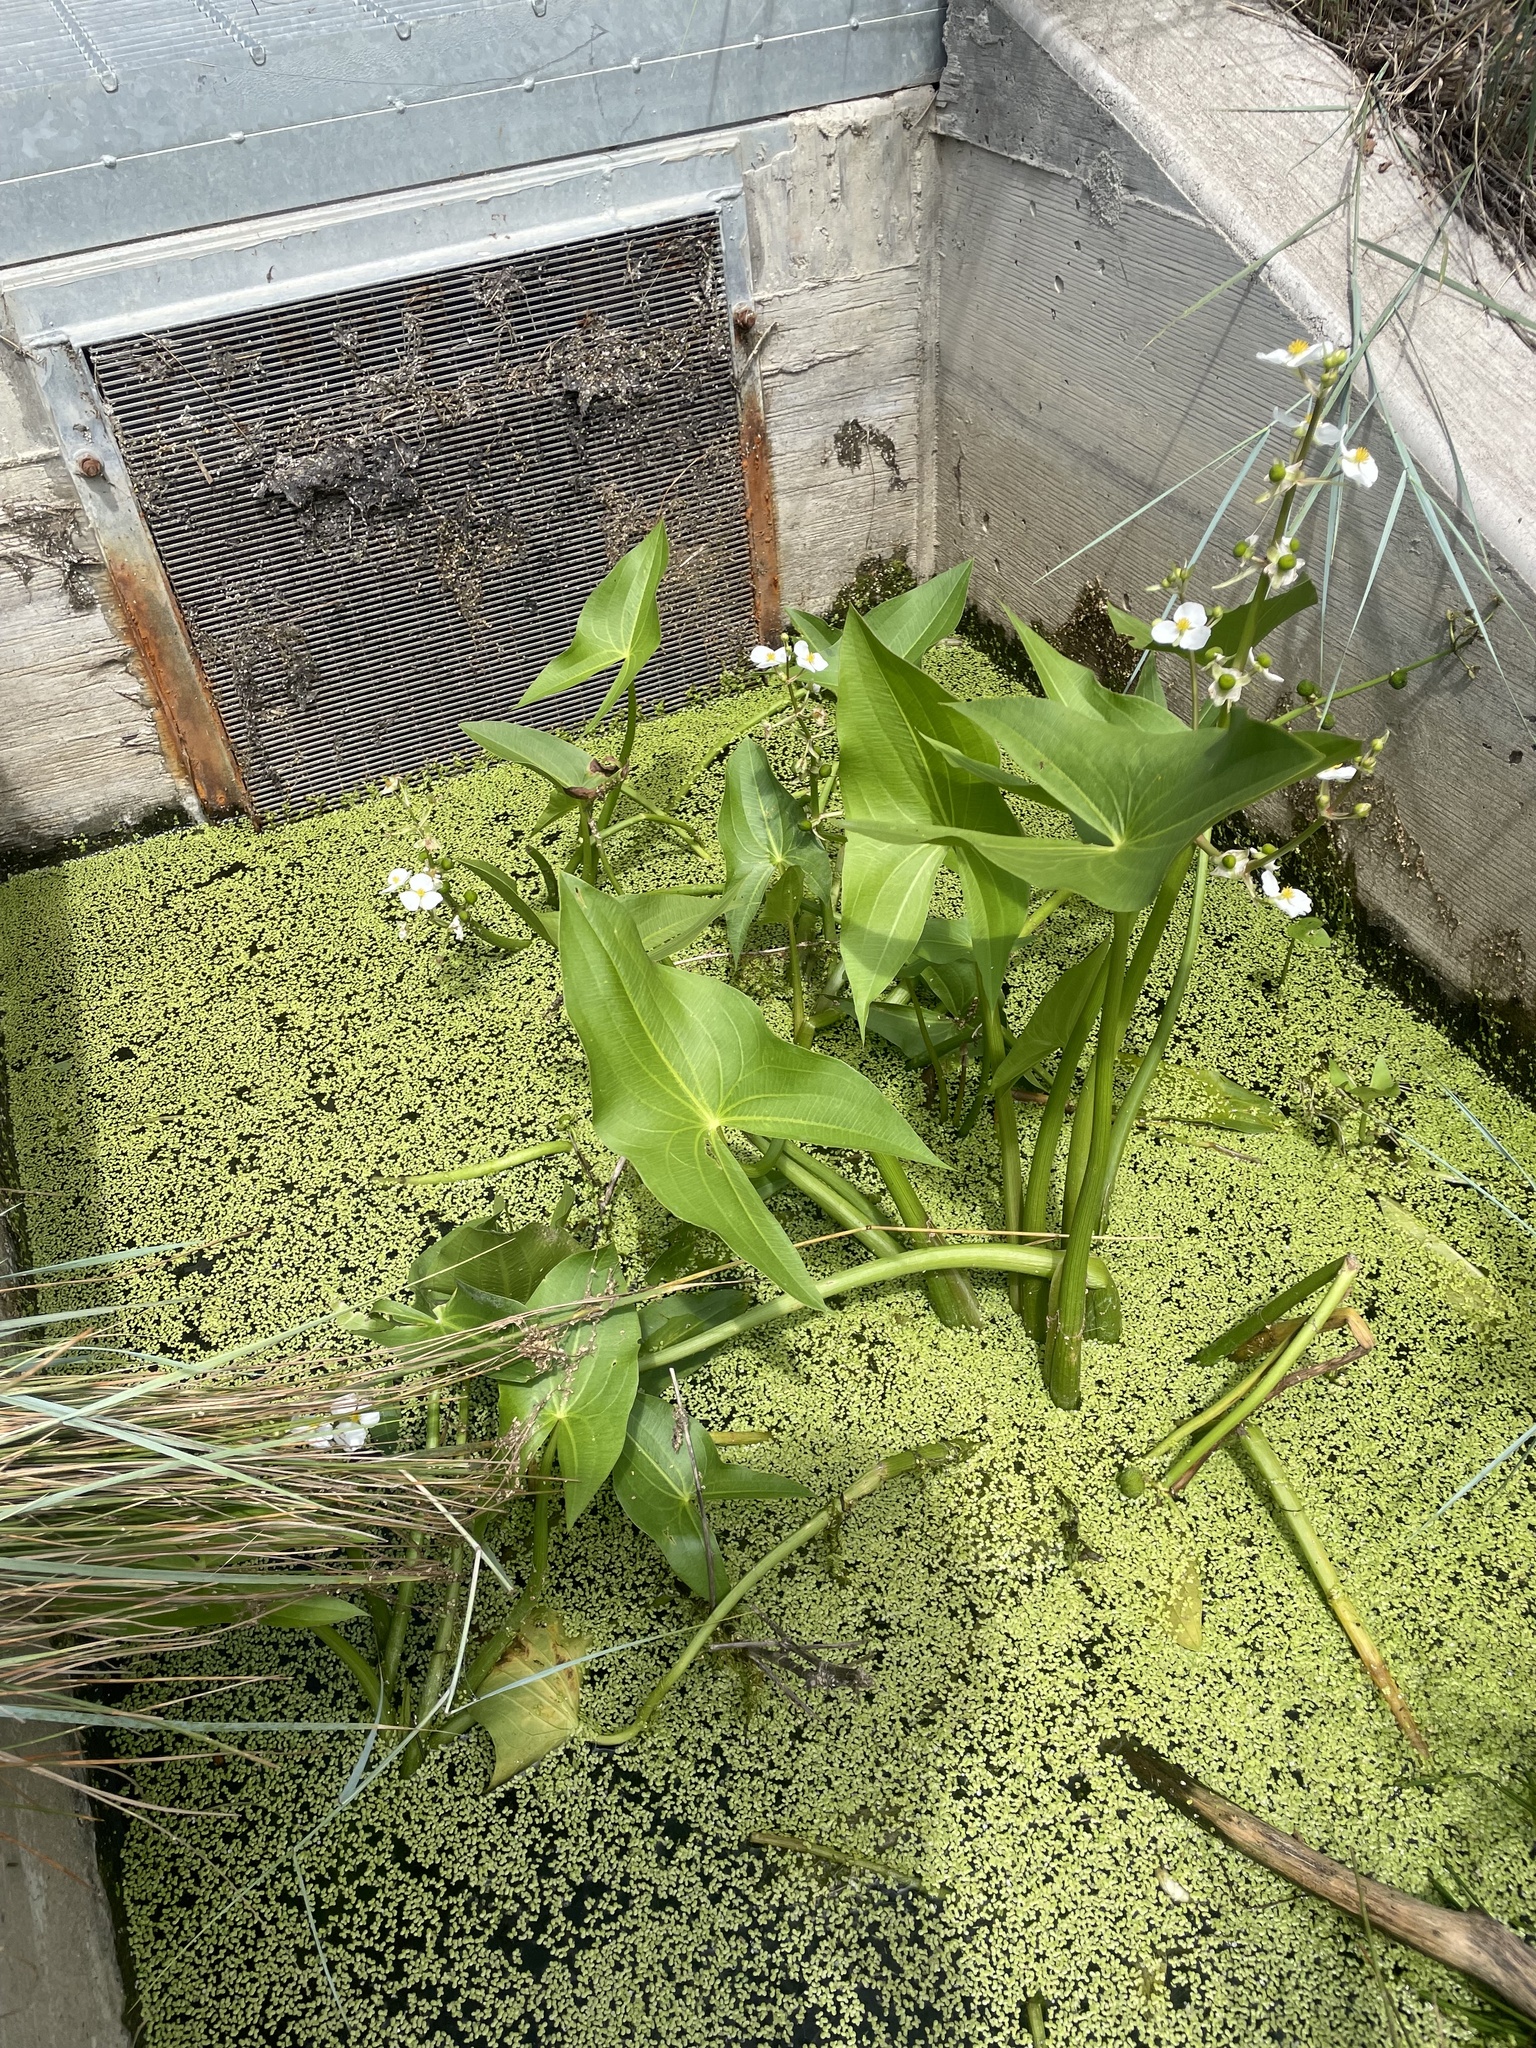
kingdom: Plantae
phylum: Tracheophyta
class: Liliopsida
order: Alismatales
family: Alismataceae
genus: Sagittaria
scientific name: Sagittaria cuneata
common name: Northern arrowhead
